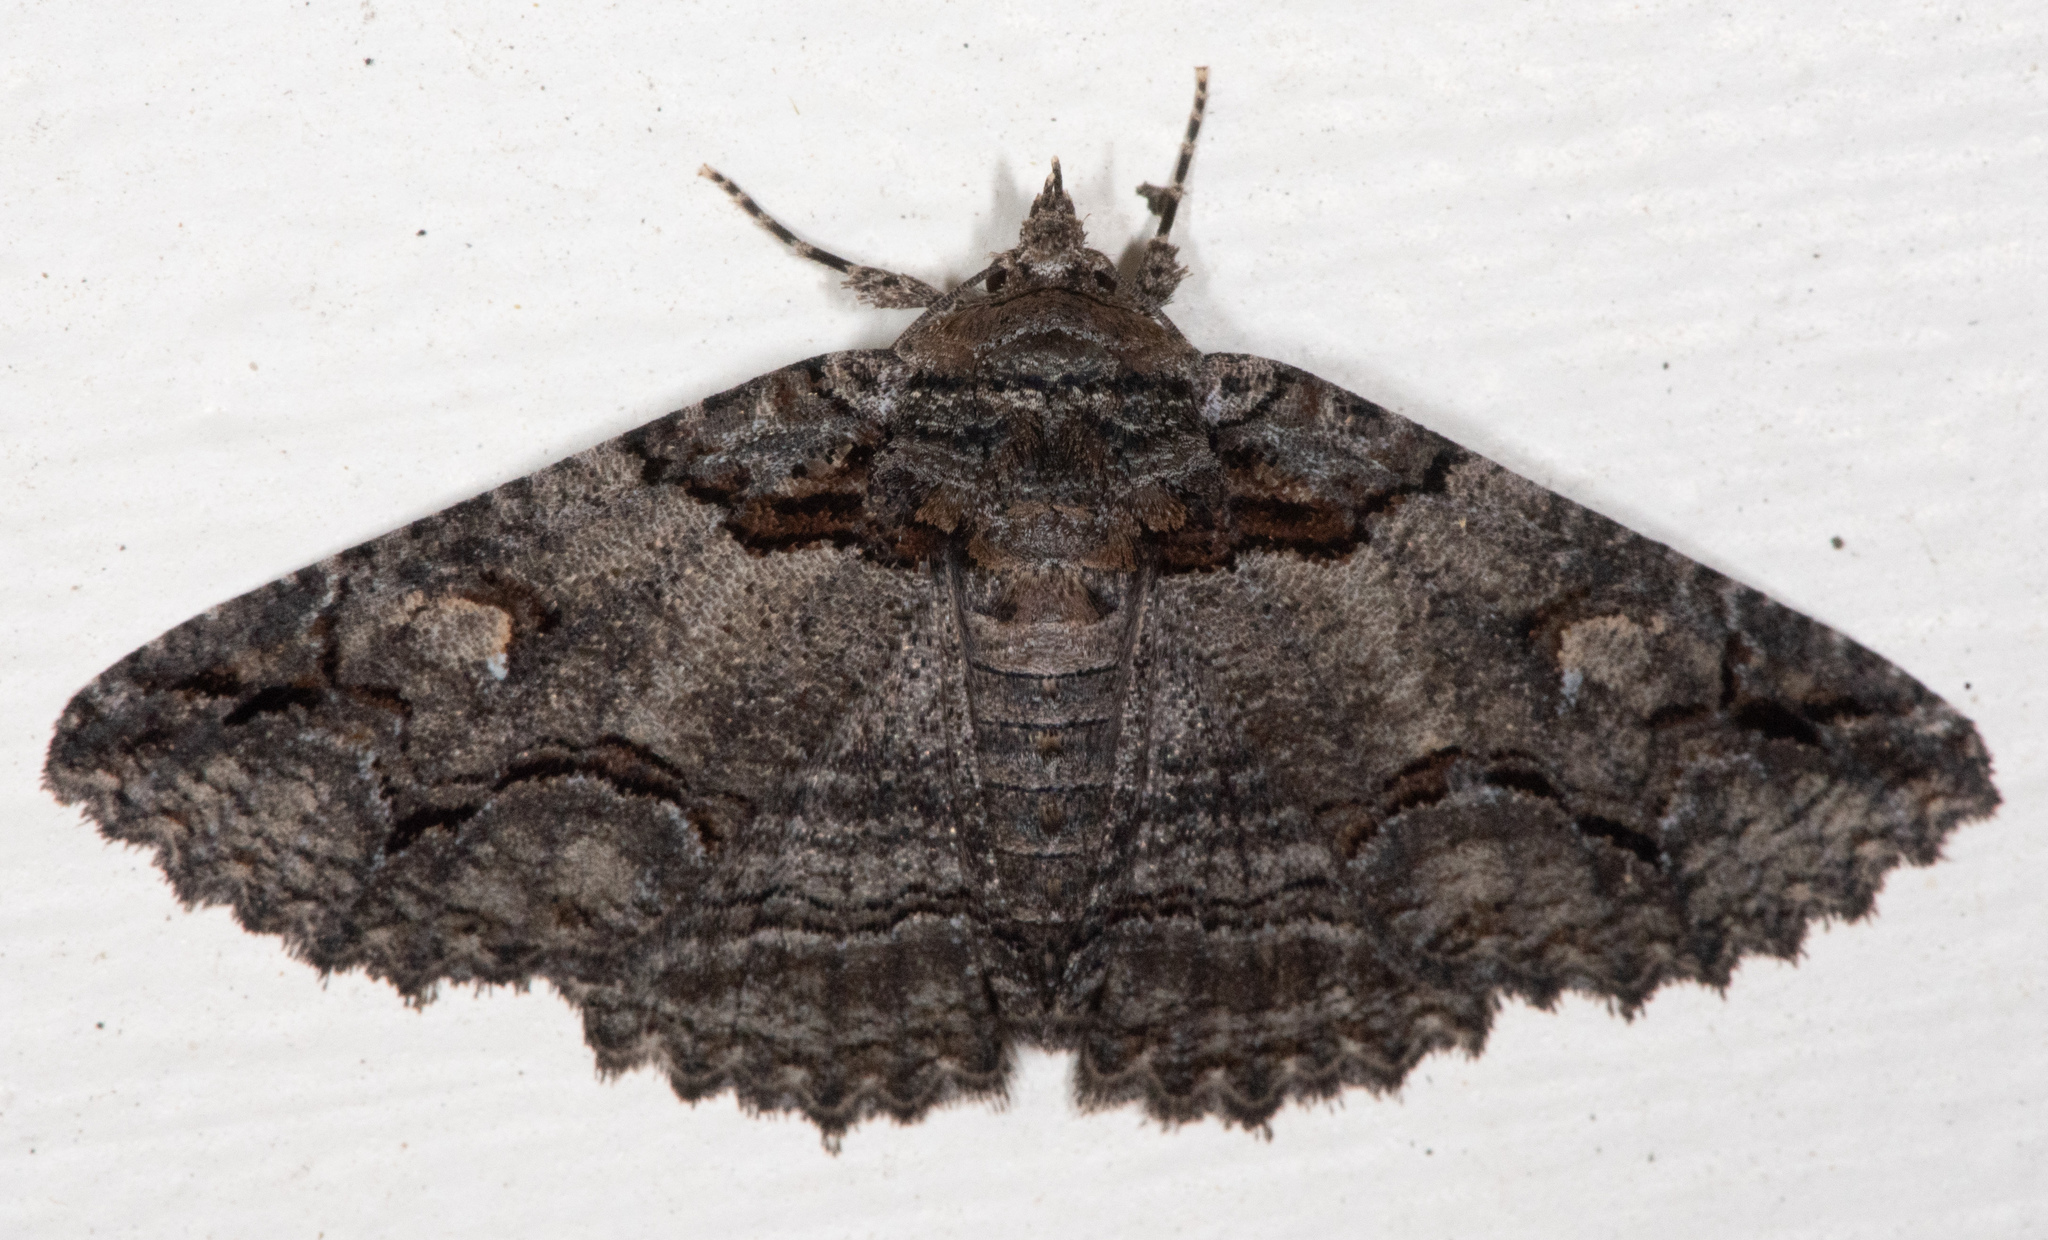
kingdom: Animalia
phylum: Arthropoda
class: Insecta
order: Lepidoptera
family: Erebidae
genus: Zale
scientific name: Zale termina
